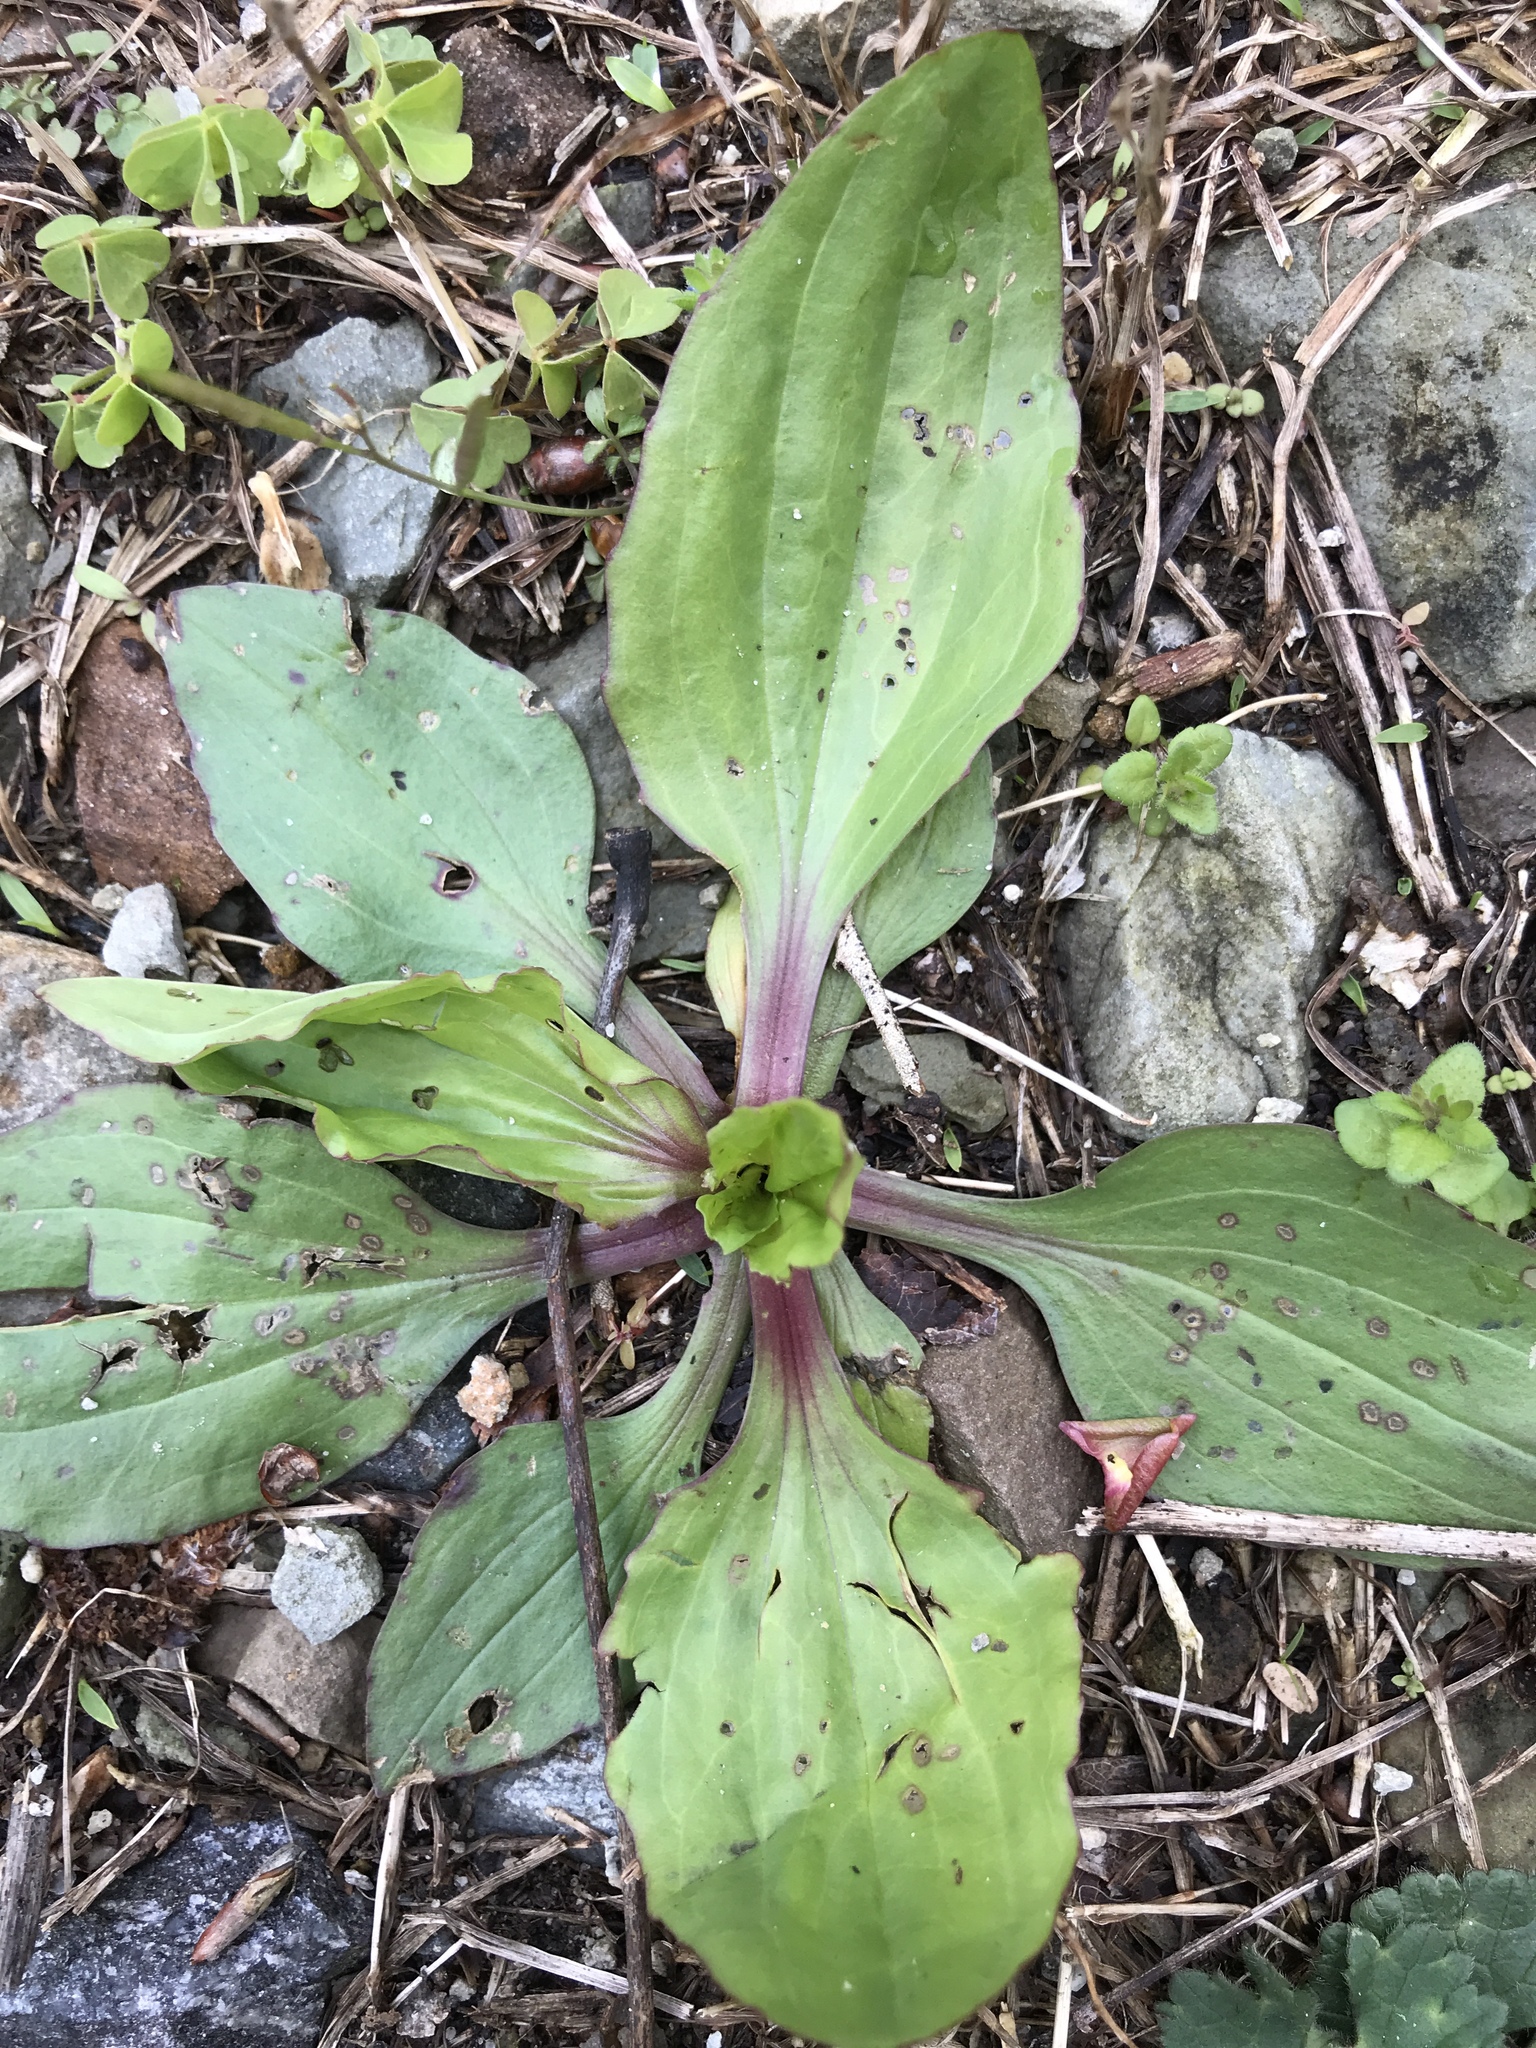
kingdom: Plantae
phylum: Tracheophyta
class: Magnoliopsida
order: Lamiales
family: Plantaginaceae
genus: Plantago
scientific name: Plantago rugelii
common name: American plantain
